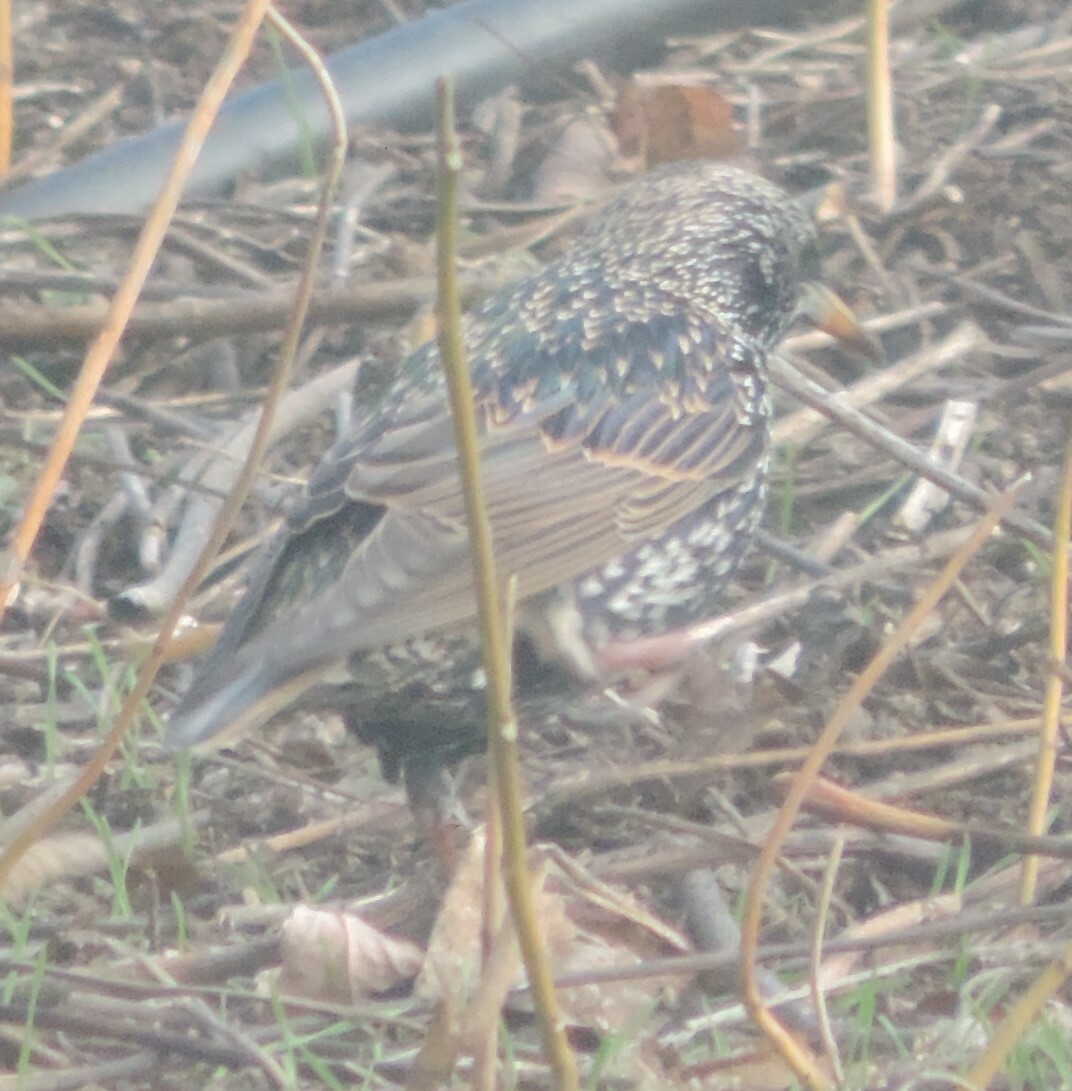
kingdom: Animalia
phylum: Chordata
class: Aves
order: Passeriformes
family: Sturnidae
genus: Sturnus
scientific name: Sturnus vulgaris
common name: Common starling
